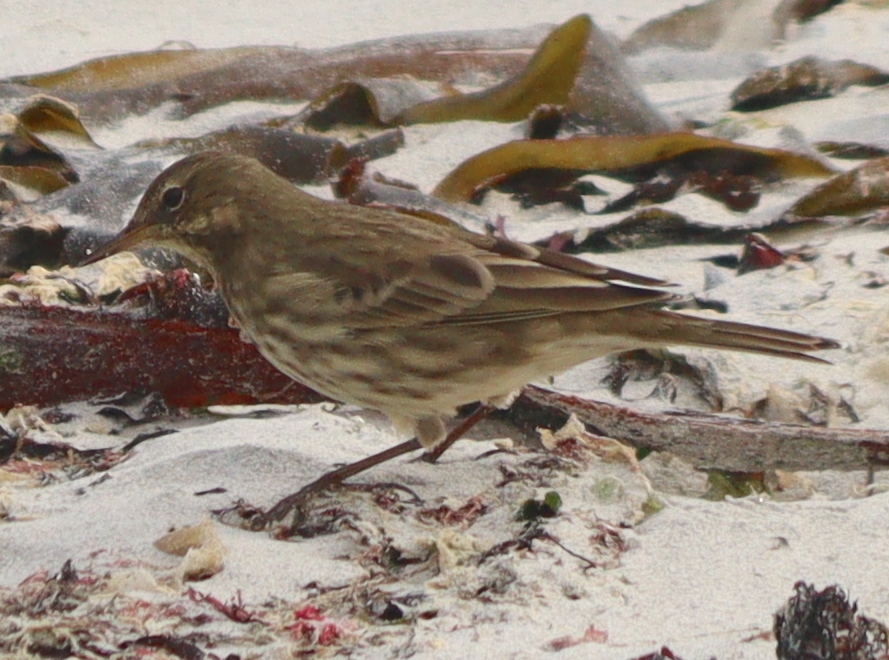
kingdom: Animalia
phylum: Chordata
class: Aves
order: Passeriformes
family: Motacillidae
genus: Anthus
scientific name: Anthus petrosus
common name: Eurasian rock pipit
